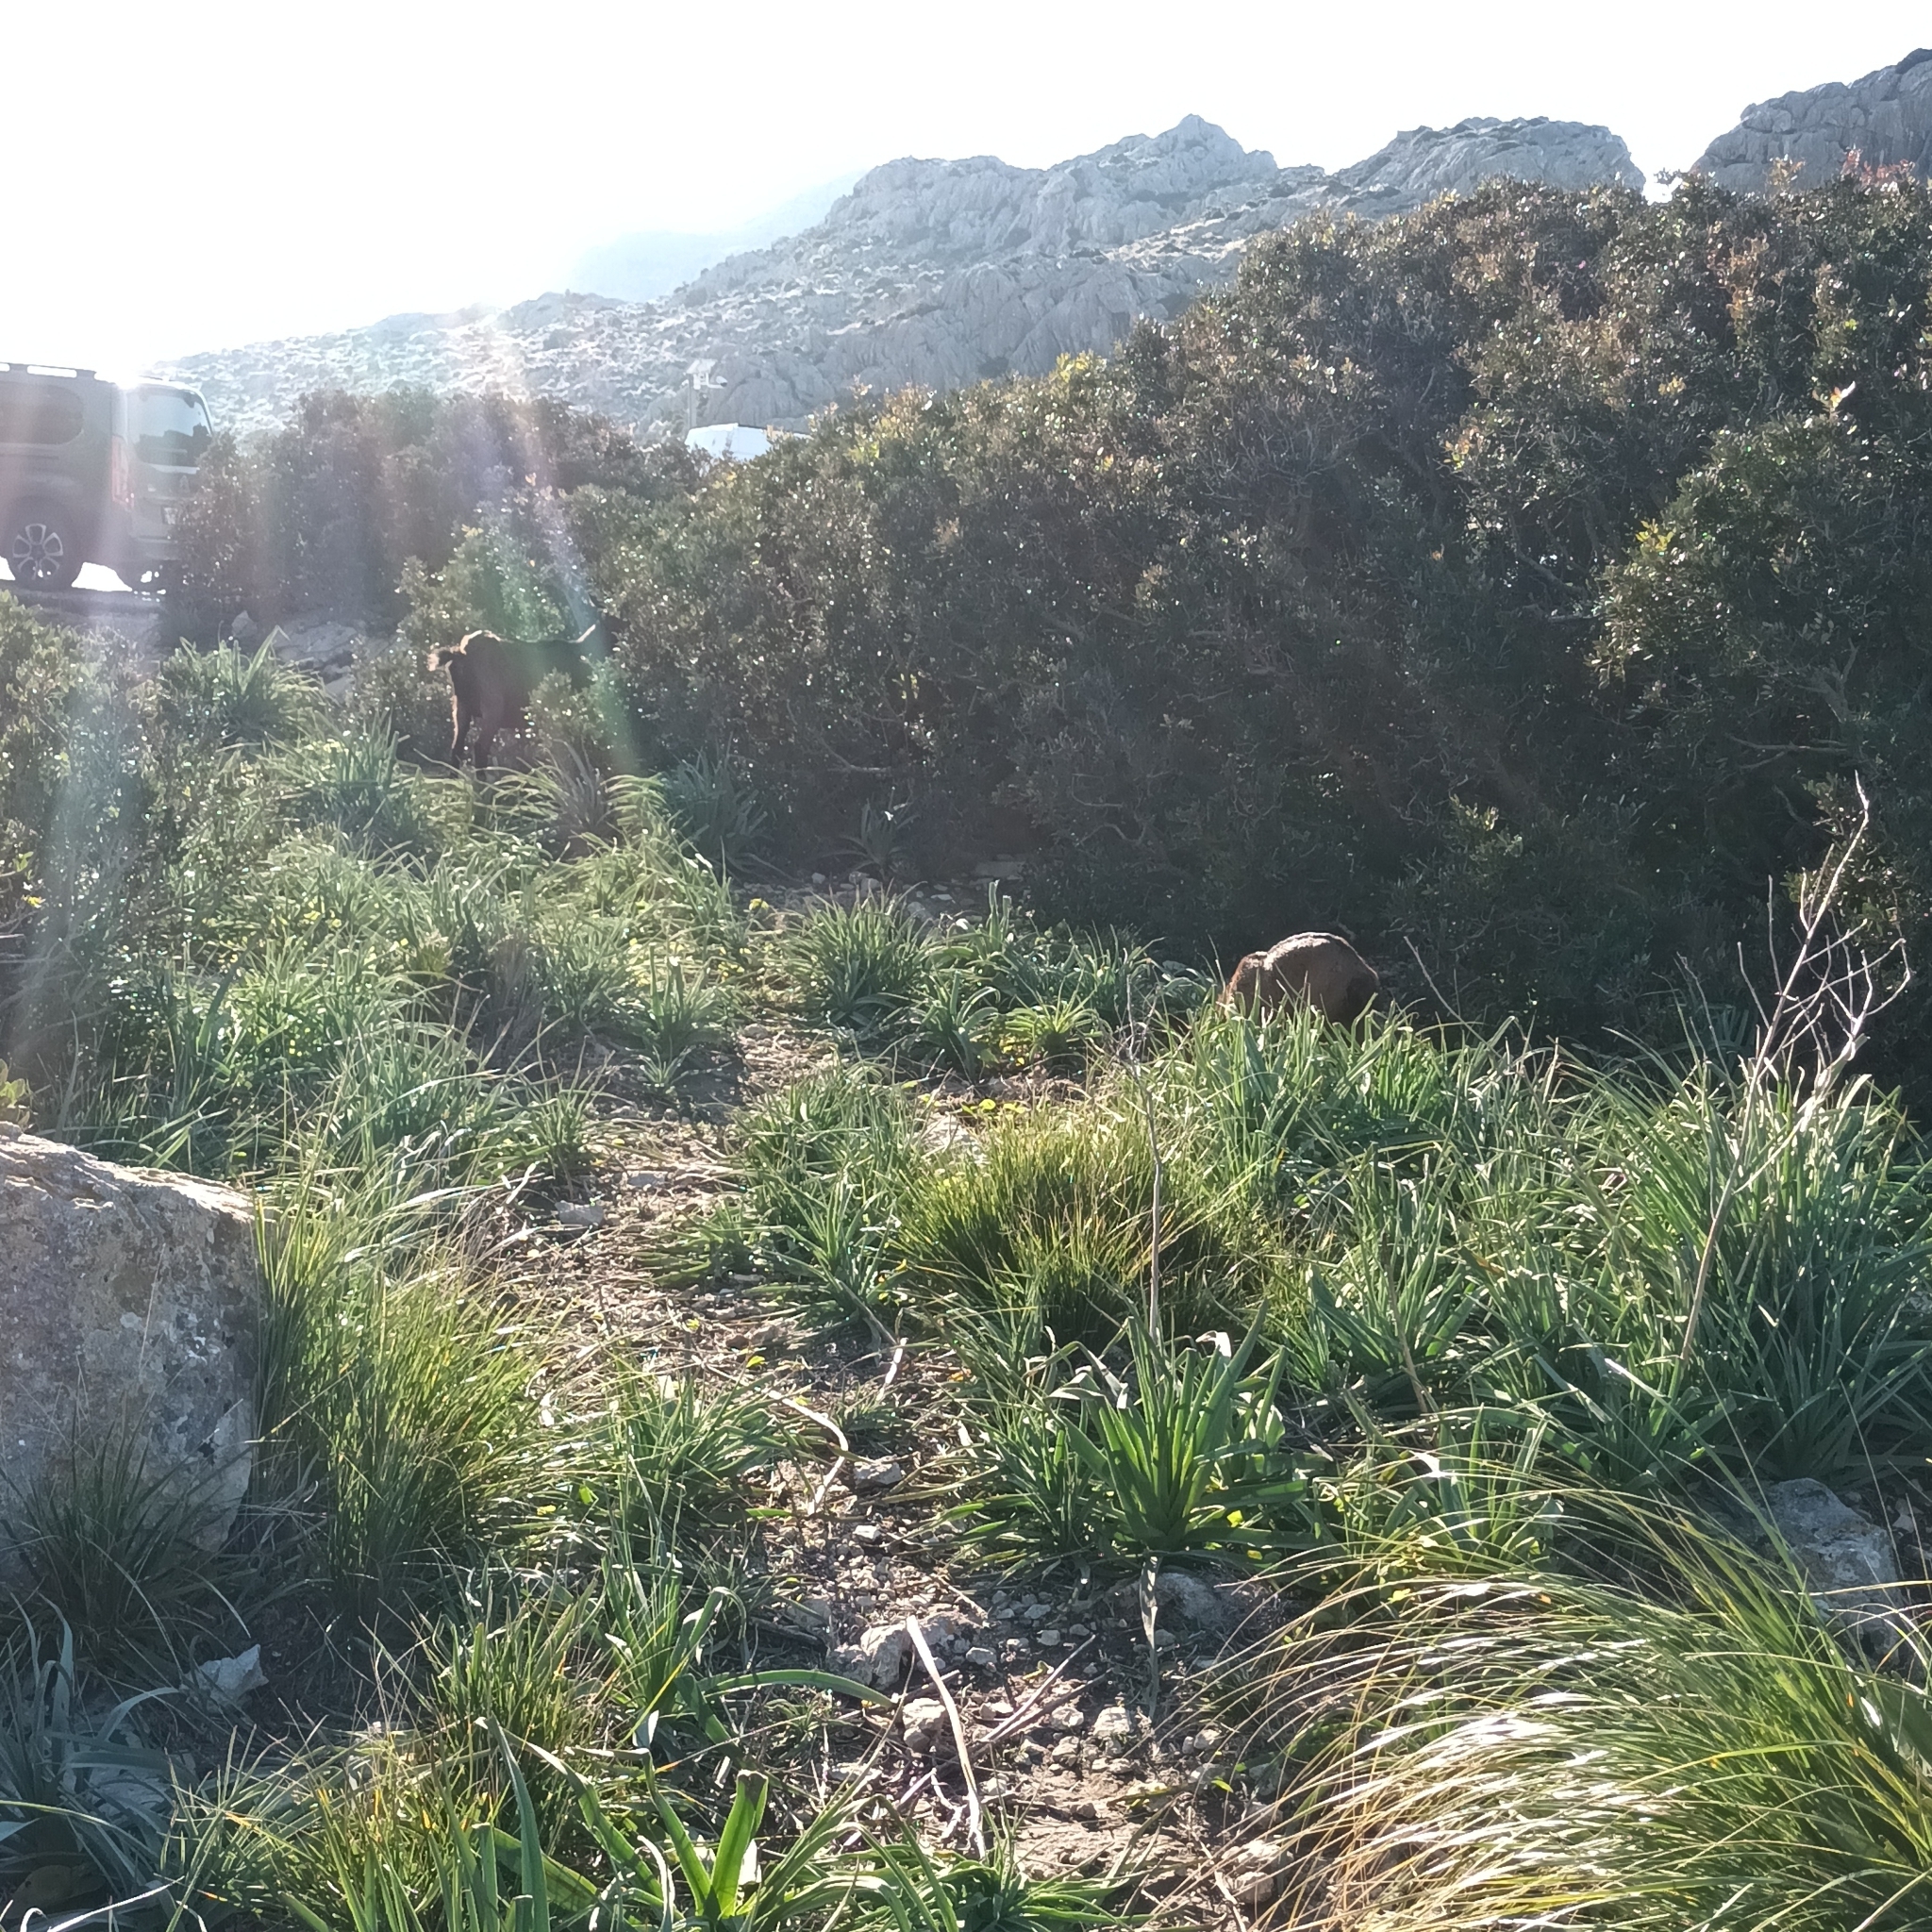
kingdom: Animalia
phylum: Chordata
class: Mammalia
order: Artiodactyla
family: Bovidae
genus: Capra
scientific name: Capra hircus
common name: Domestic goat
